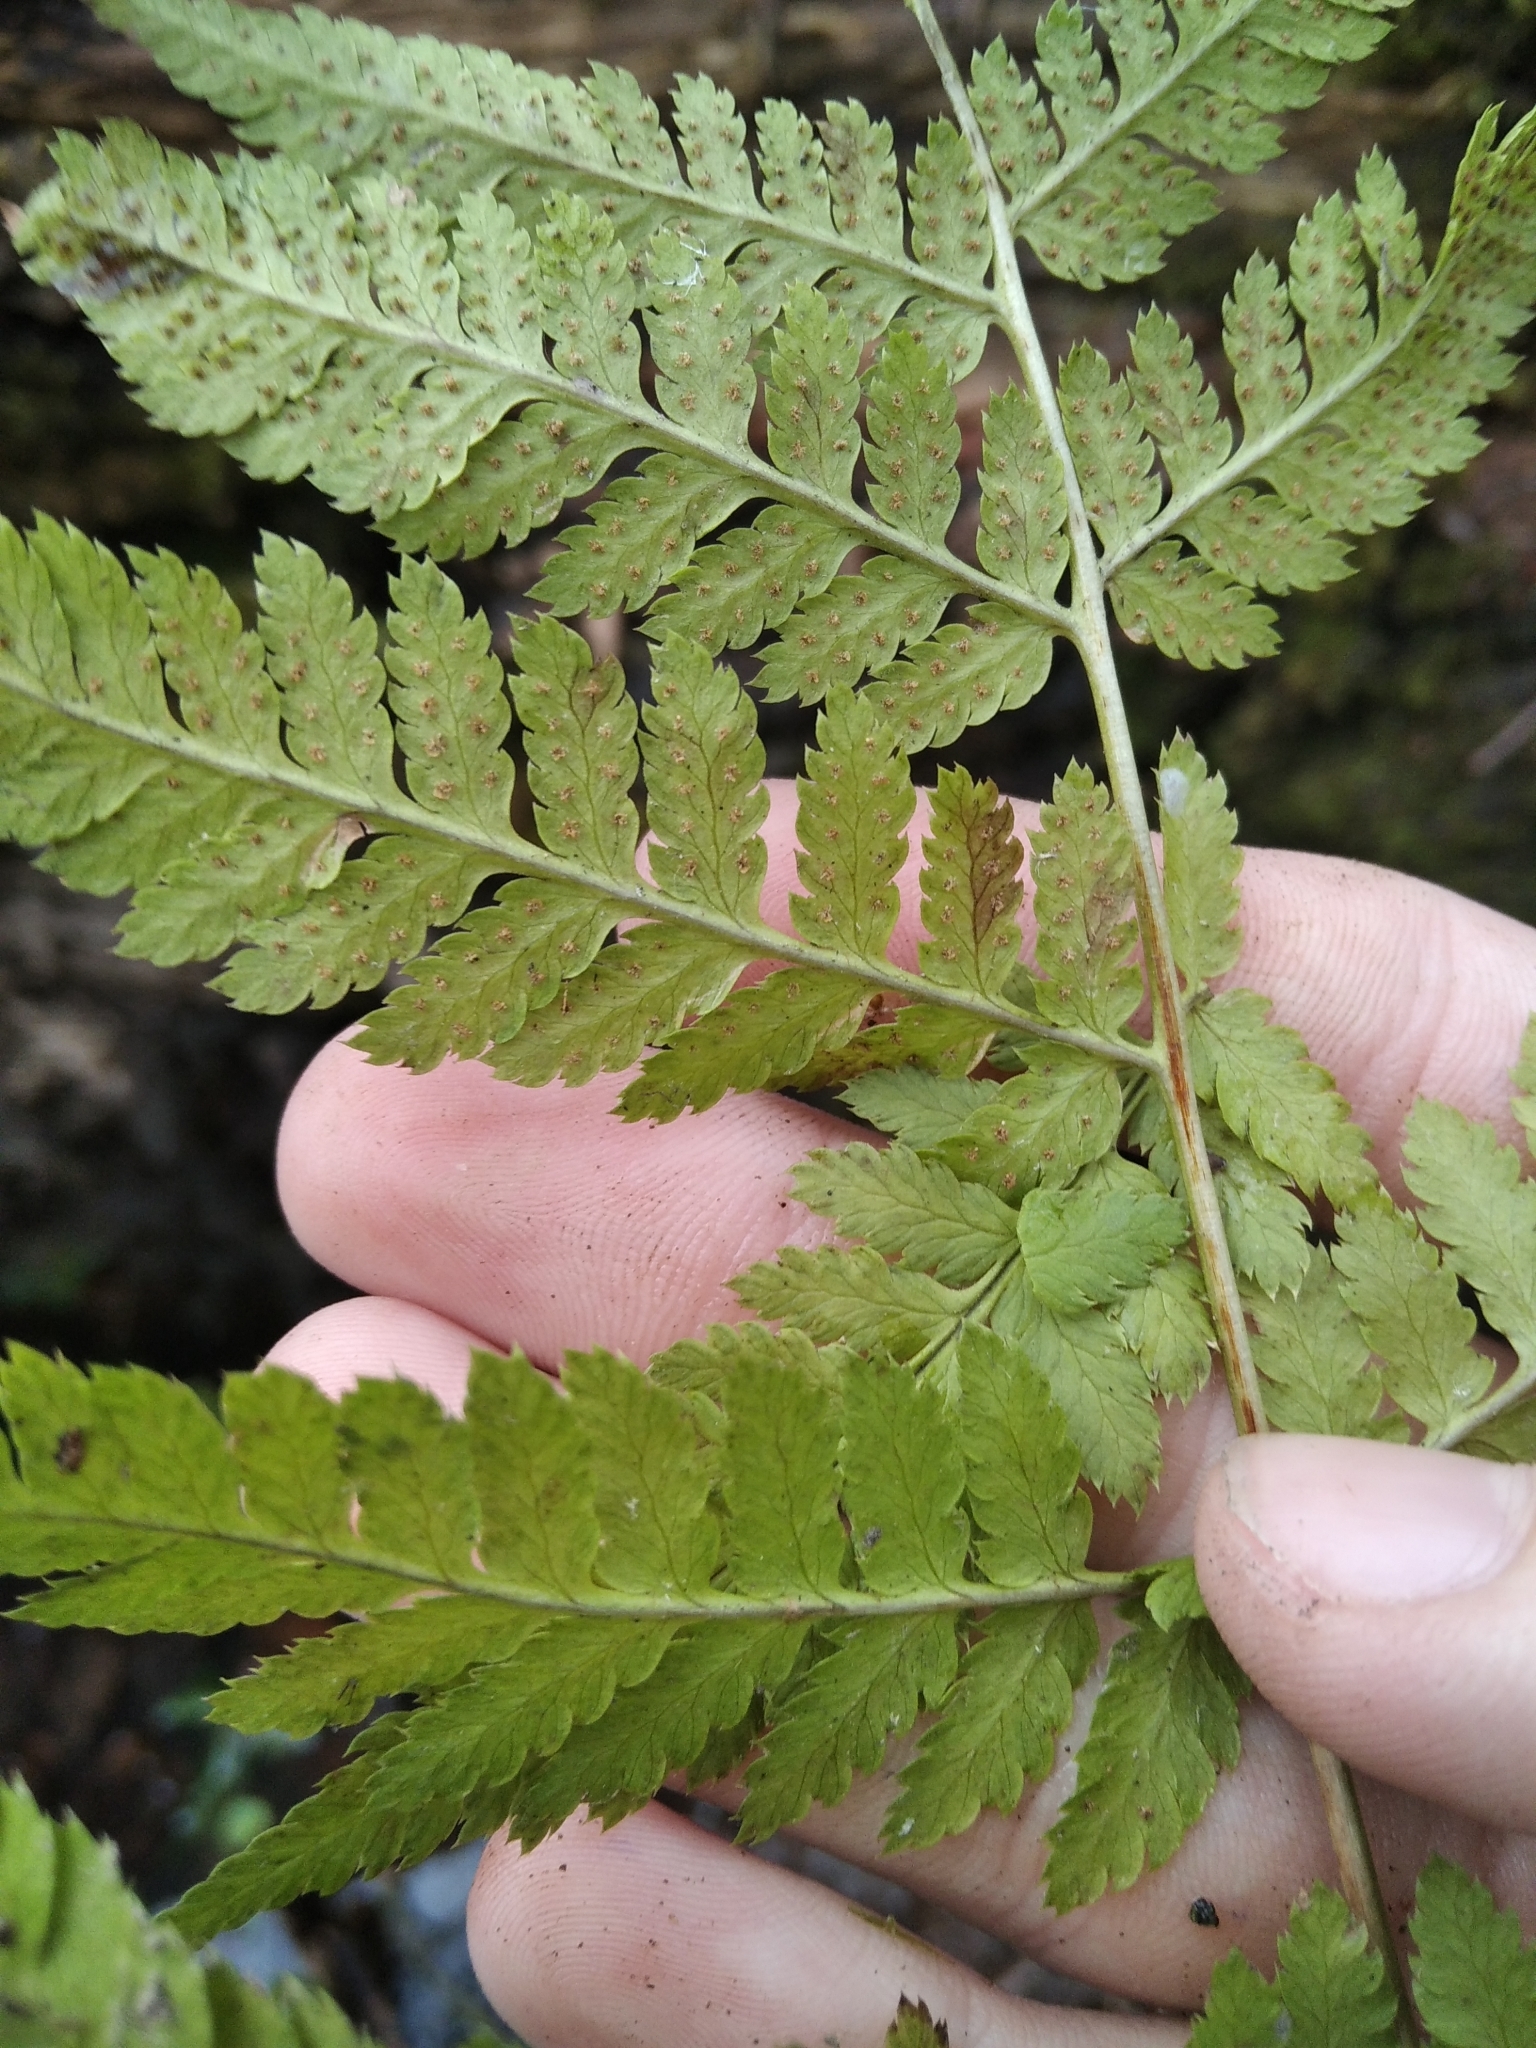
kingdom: Plantae
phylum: Tracheophyta
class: Polypodiopsida
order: Polypodiales
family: Dryopteridaceae
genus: Dryopteris
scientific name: Dryopteris carthusiana
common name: Narrow buckler-fern
